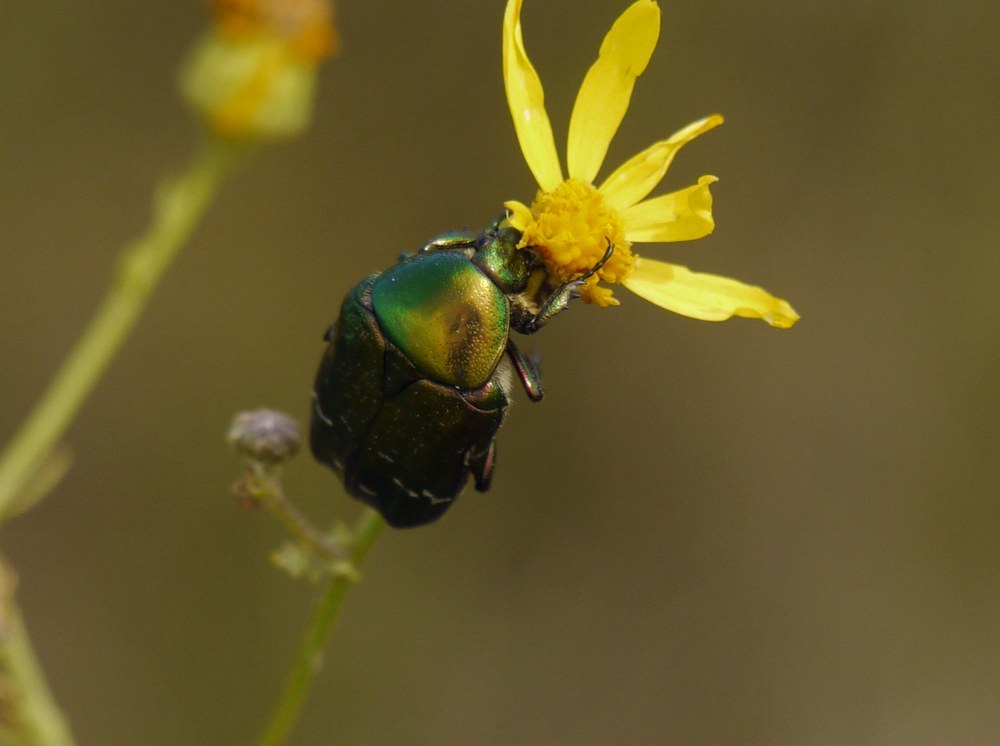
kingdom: Animalia
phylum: Arthropoda
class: Insecta
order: Coleoptera
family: Scarabaeidae
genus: Cetonia
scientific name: Cetonia aurata
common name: Rose chafer
